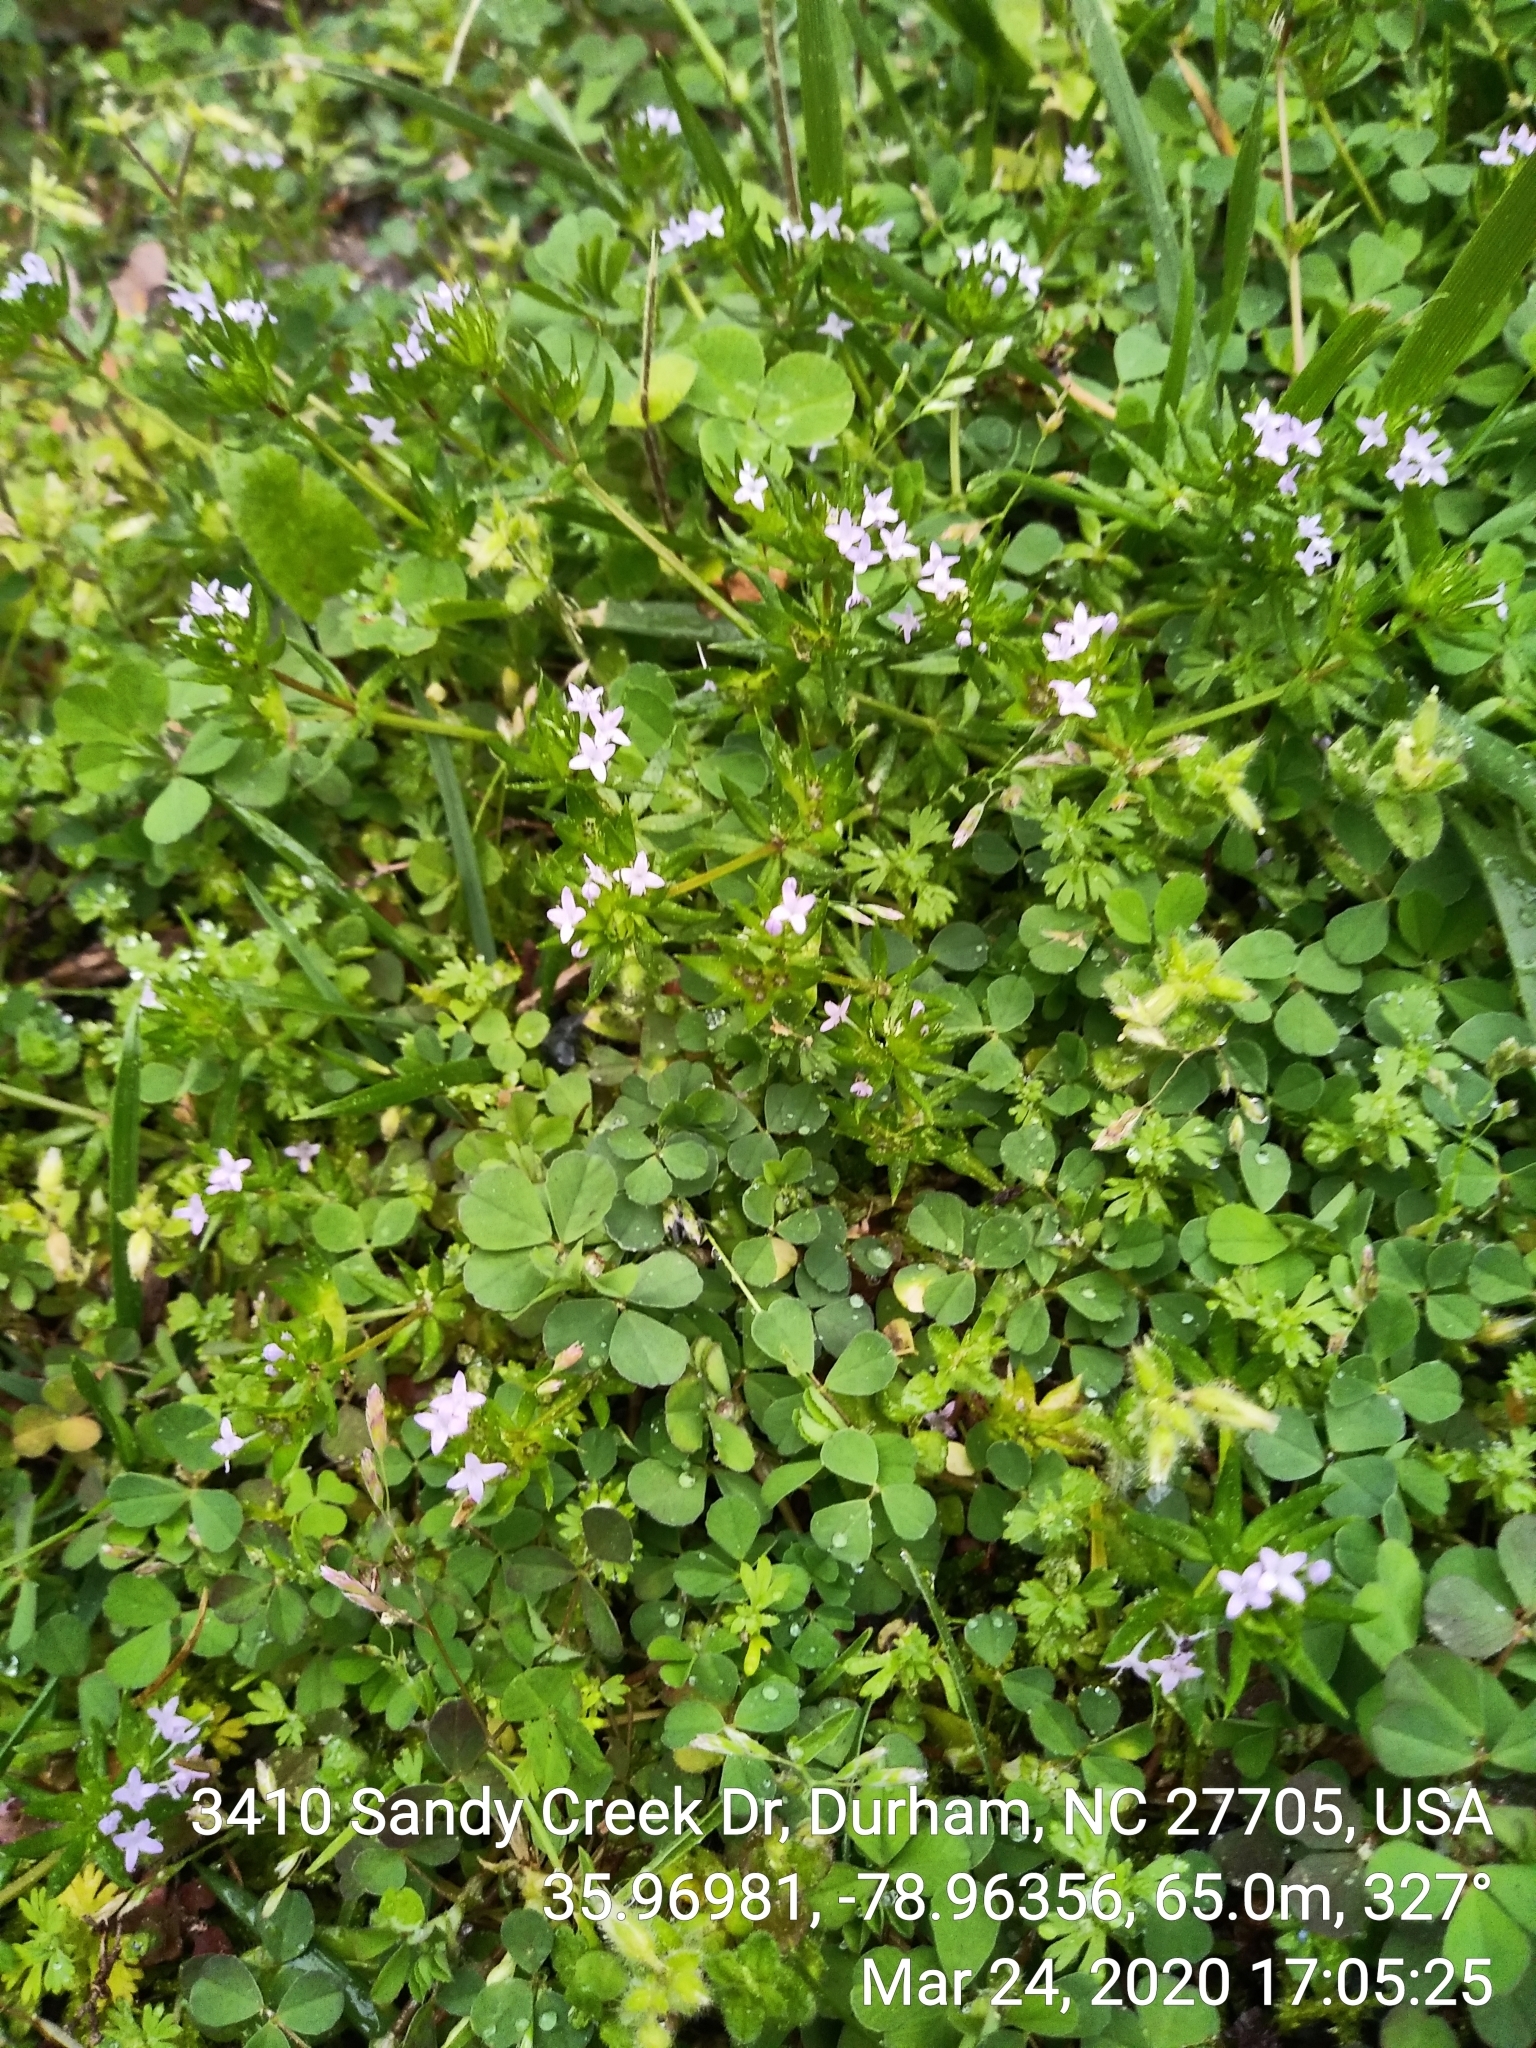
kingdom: Plantae
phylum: Tracheophyta
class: Magnoliopsida
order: Gentianales
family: Rubiaceae
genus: Sherardia
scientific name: Sherardia arvensis
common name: Field madder
